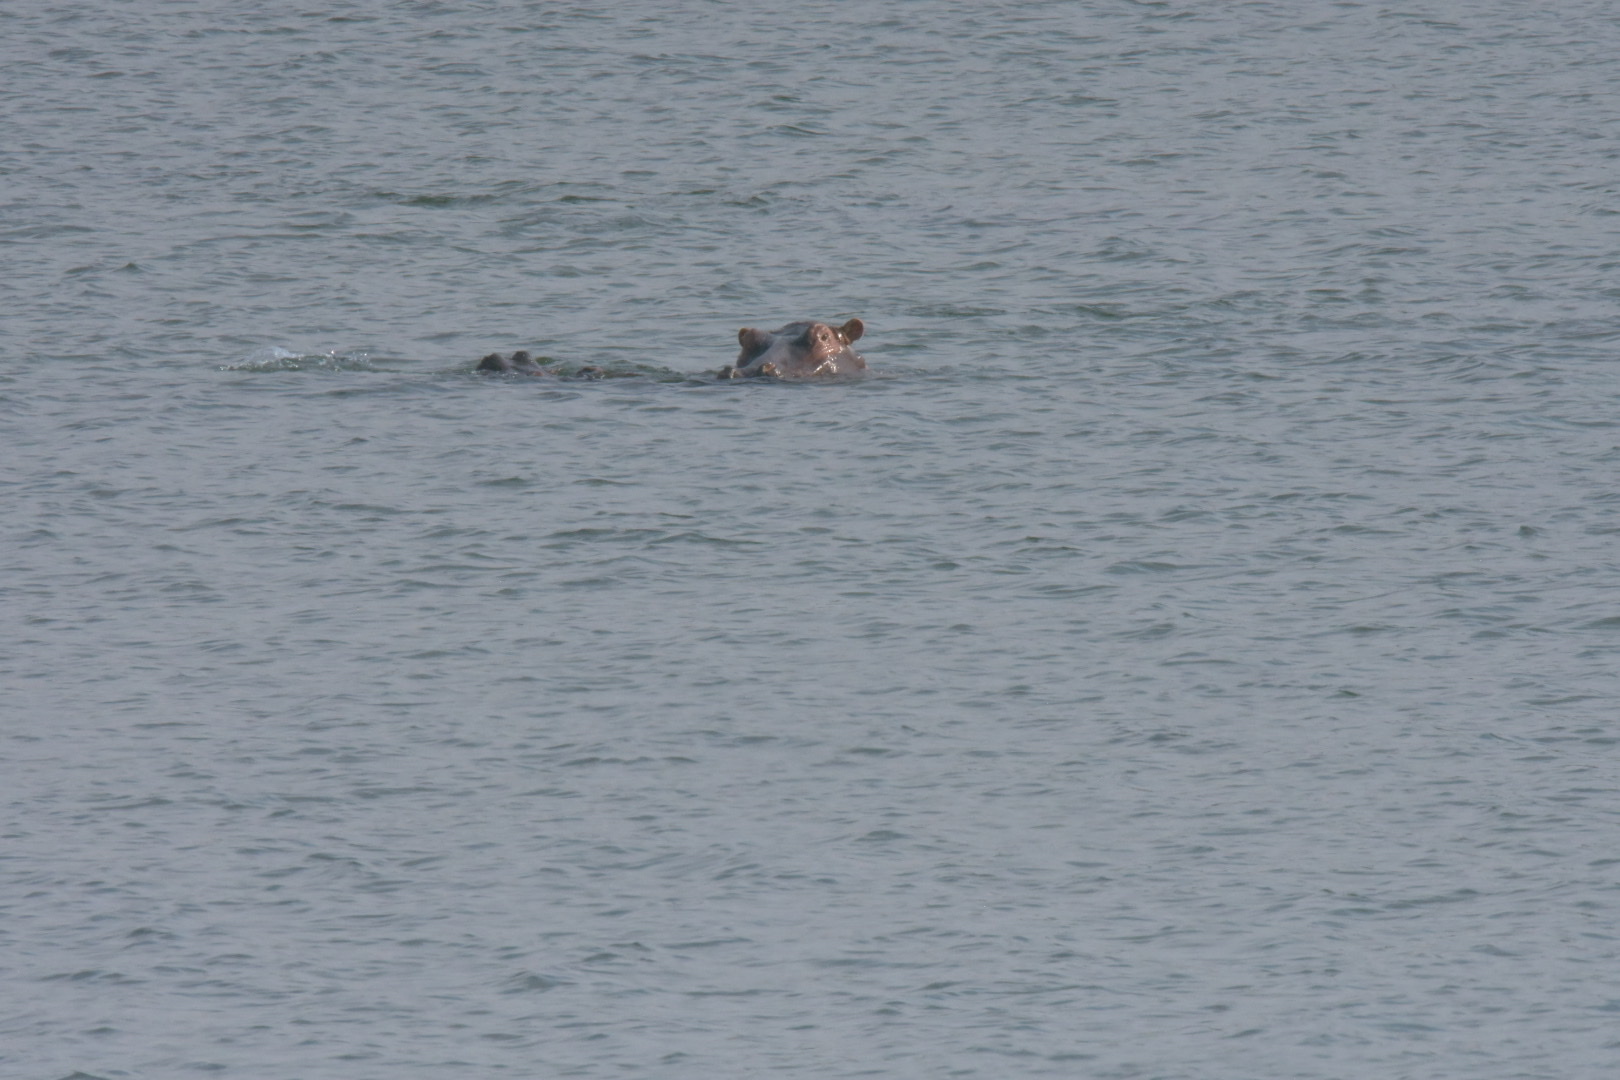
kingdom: Animalia
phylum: Chordata
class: Mammalia
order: Artiodactyla
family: Hippopotamidae
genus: Hippopotamus
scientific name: Hippopotamus amphibius
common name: Common hippopotamus
